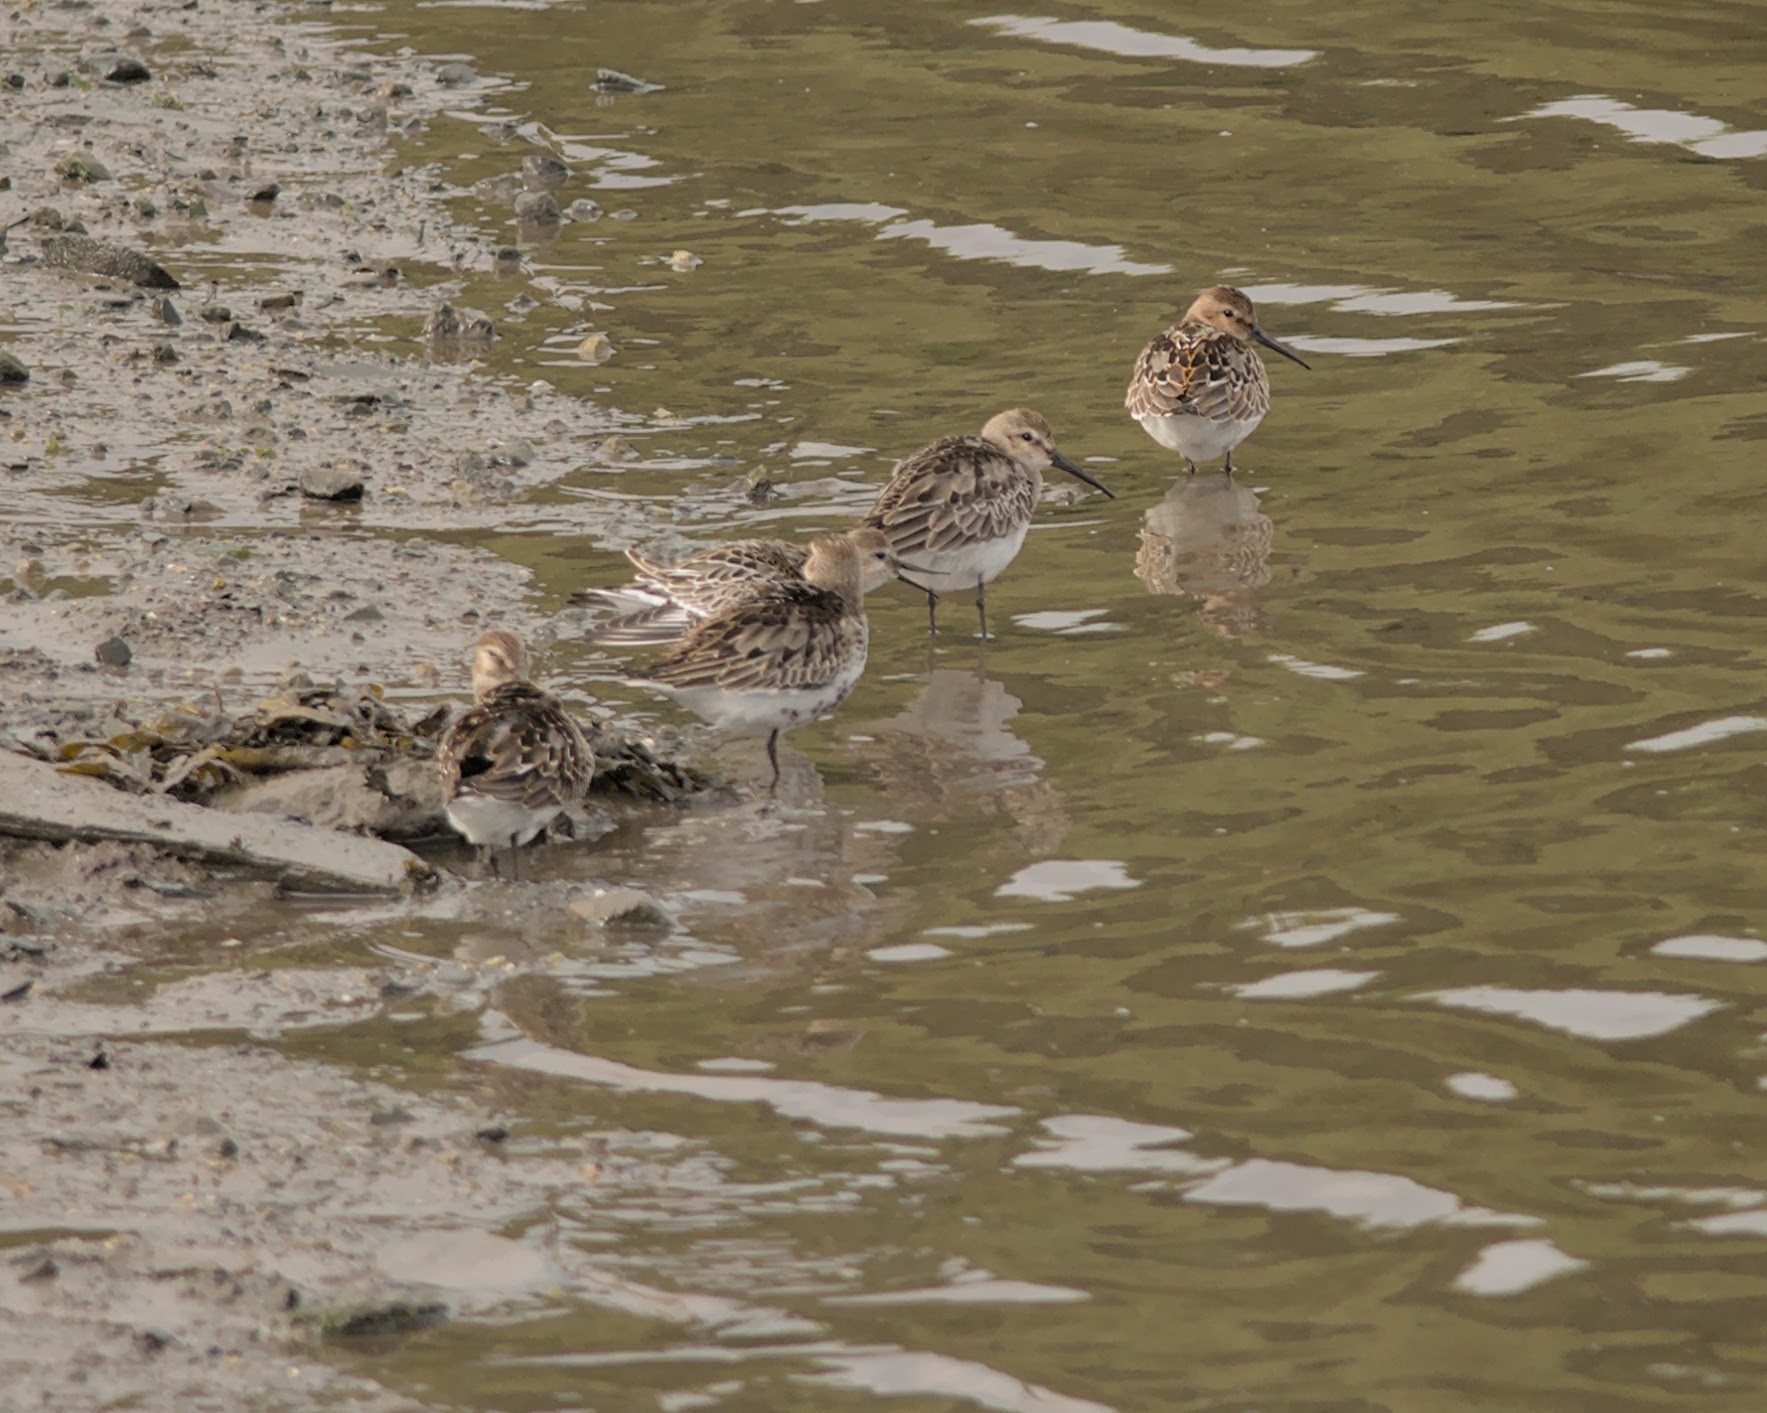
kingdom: Animalia
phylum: Chordata
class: Aves
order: Charadriiformes
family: Scolopacidae
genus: Calidris
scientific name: Calidris alpina
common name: Dunlin
